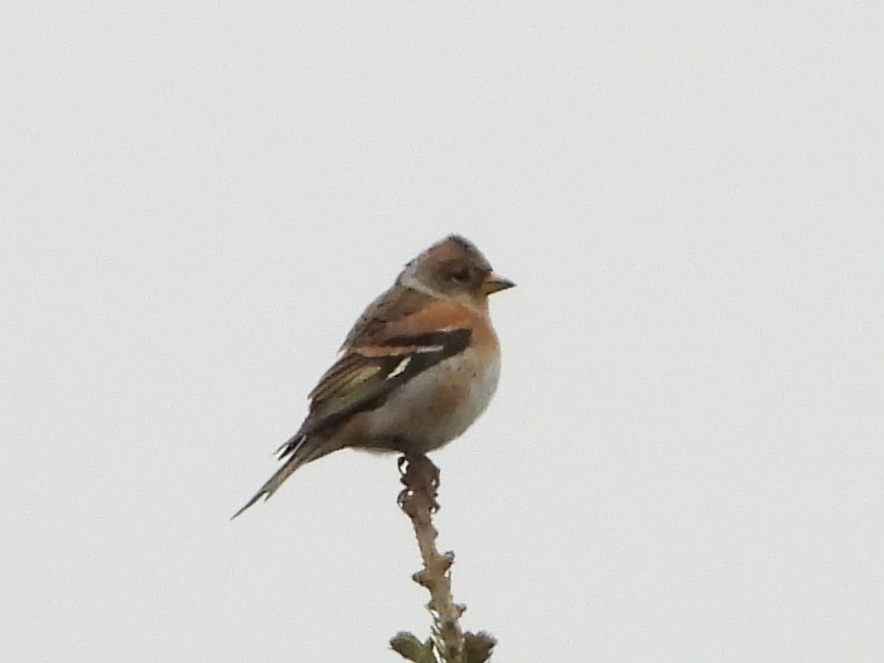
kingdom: Animalia
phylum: Chordata
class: Aves
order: Passeriformes
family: Fringillidae
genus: Fringilla
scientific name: Fringilla montifringilla
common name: Brambling
